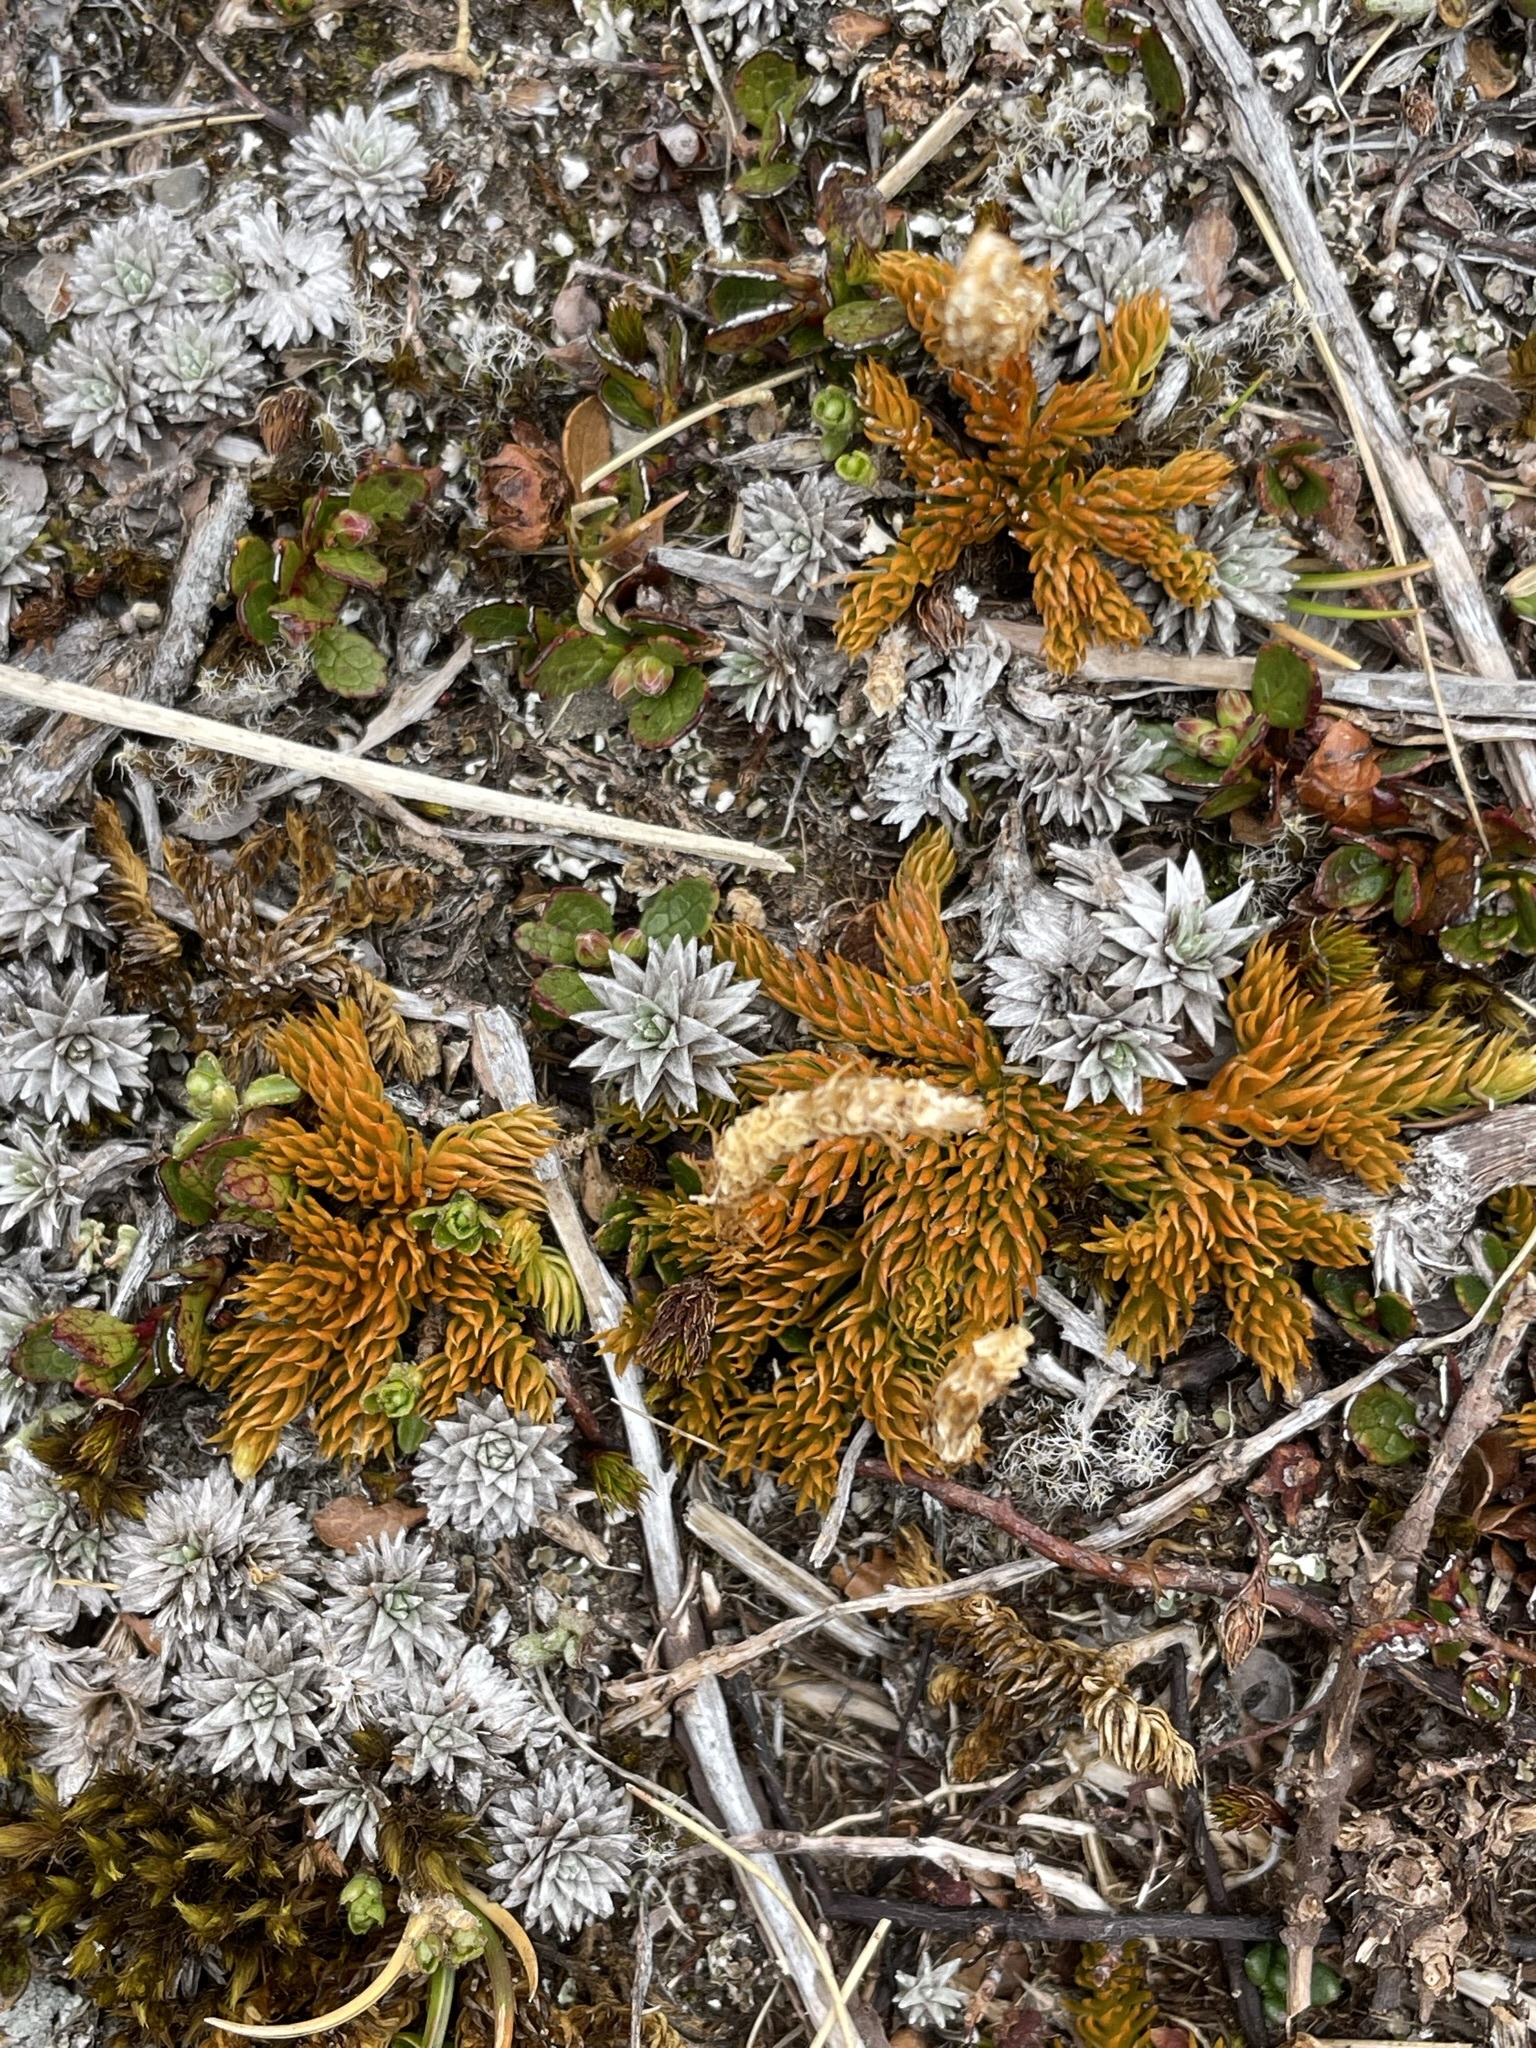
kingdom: Plantae
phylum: Tracheophyta
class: Lycopodiopsida
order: Lycopodiales
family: Lycopodiaceae
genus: Austrolycopodium
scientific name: Austrolycopodium fastigiatum
